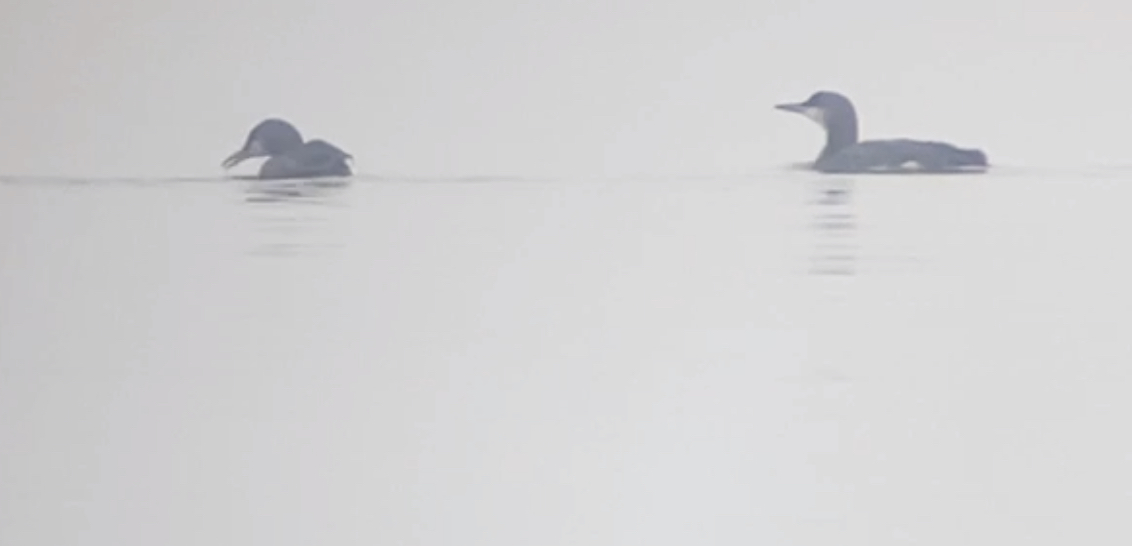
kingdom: Animalia
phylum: Chordata
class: Aves
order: Gaviiformes
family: Gaviidae
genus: Gavia
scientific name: Gavia arctica
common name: Black-throated loon
